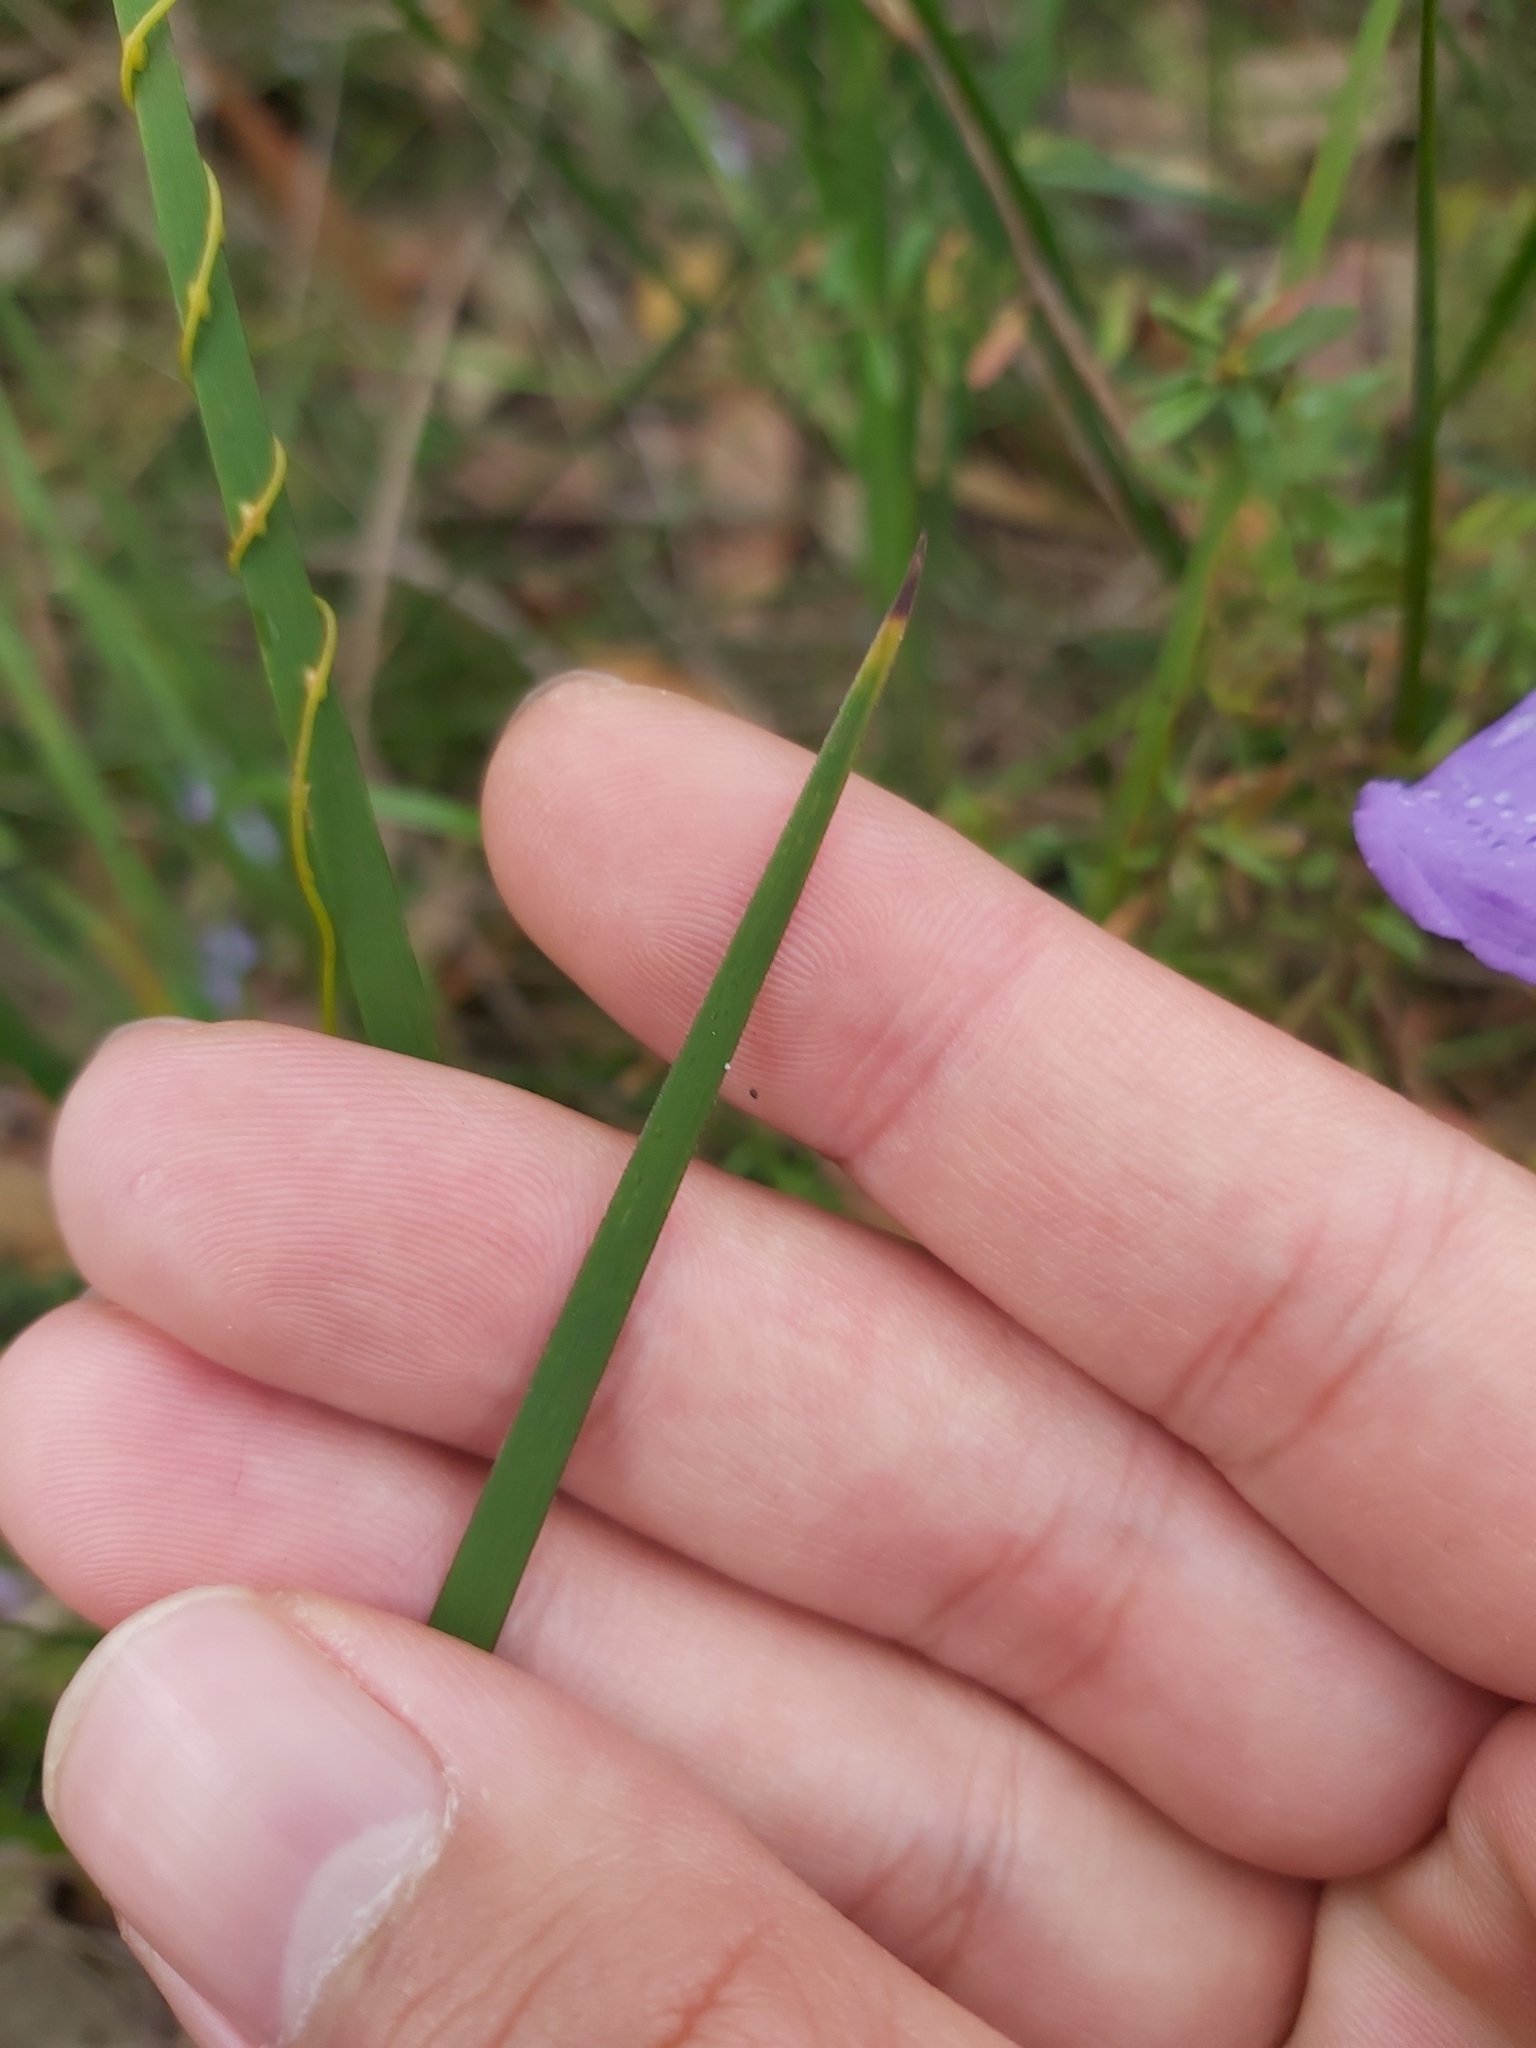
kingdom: Plantae
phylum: Tracheophyta
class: Liliopsida
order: Asparagales
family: Iridaceae
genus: Patersonia
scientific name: Patersonia glabrata
